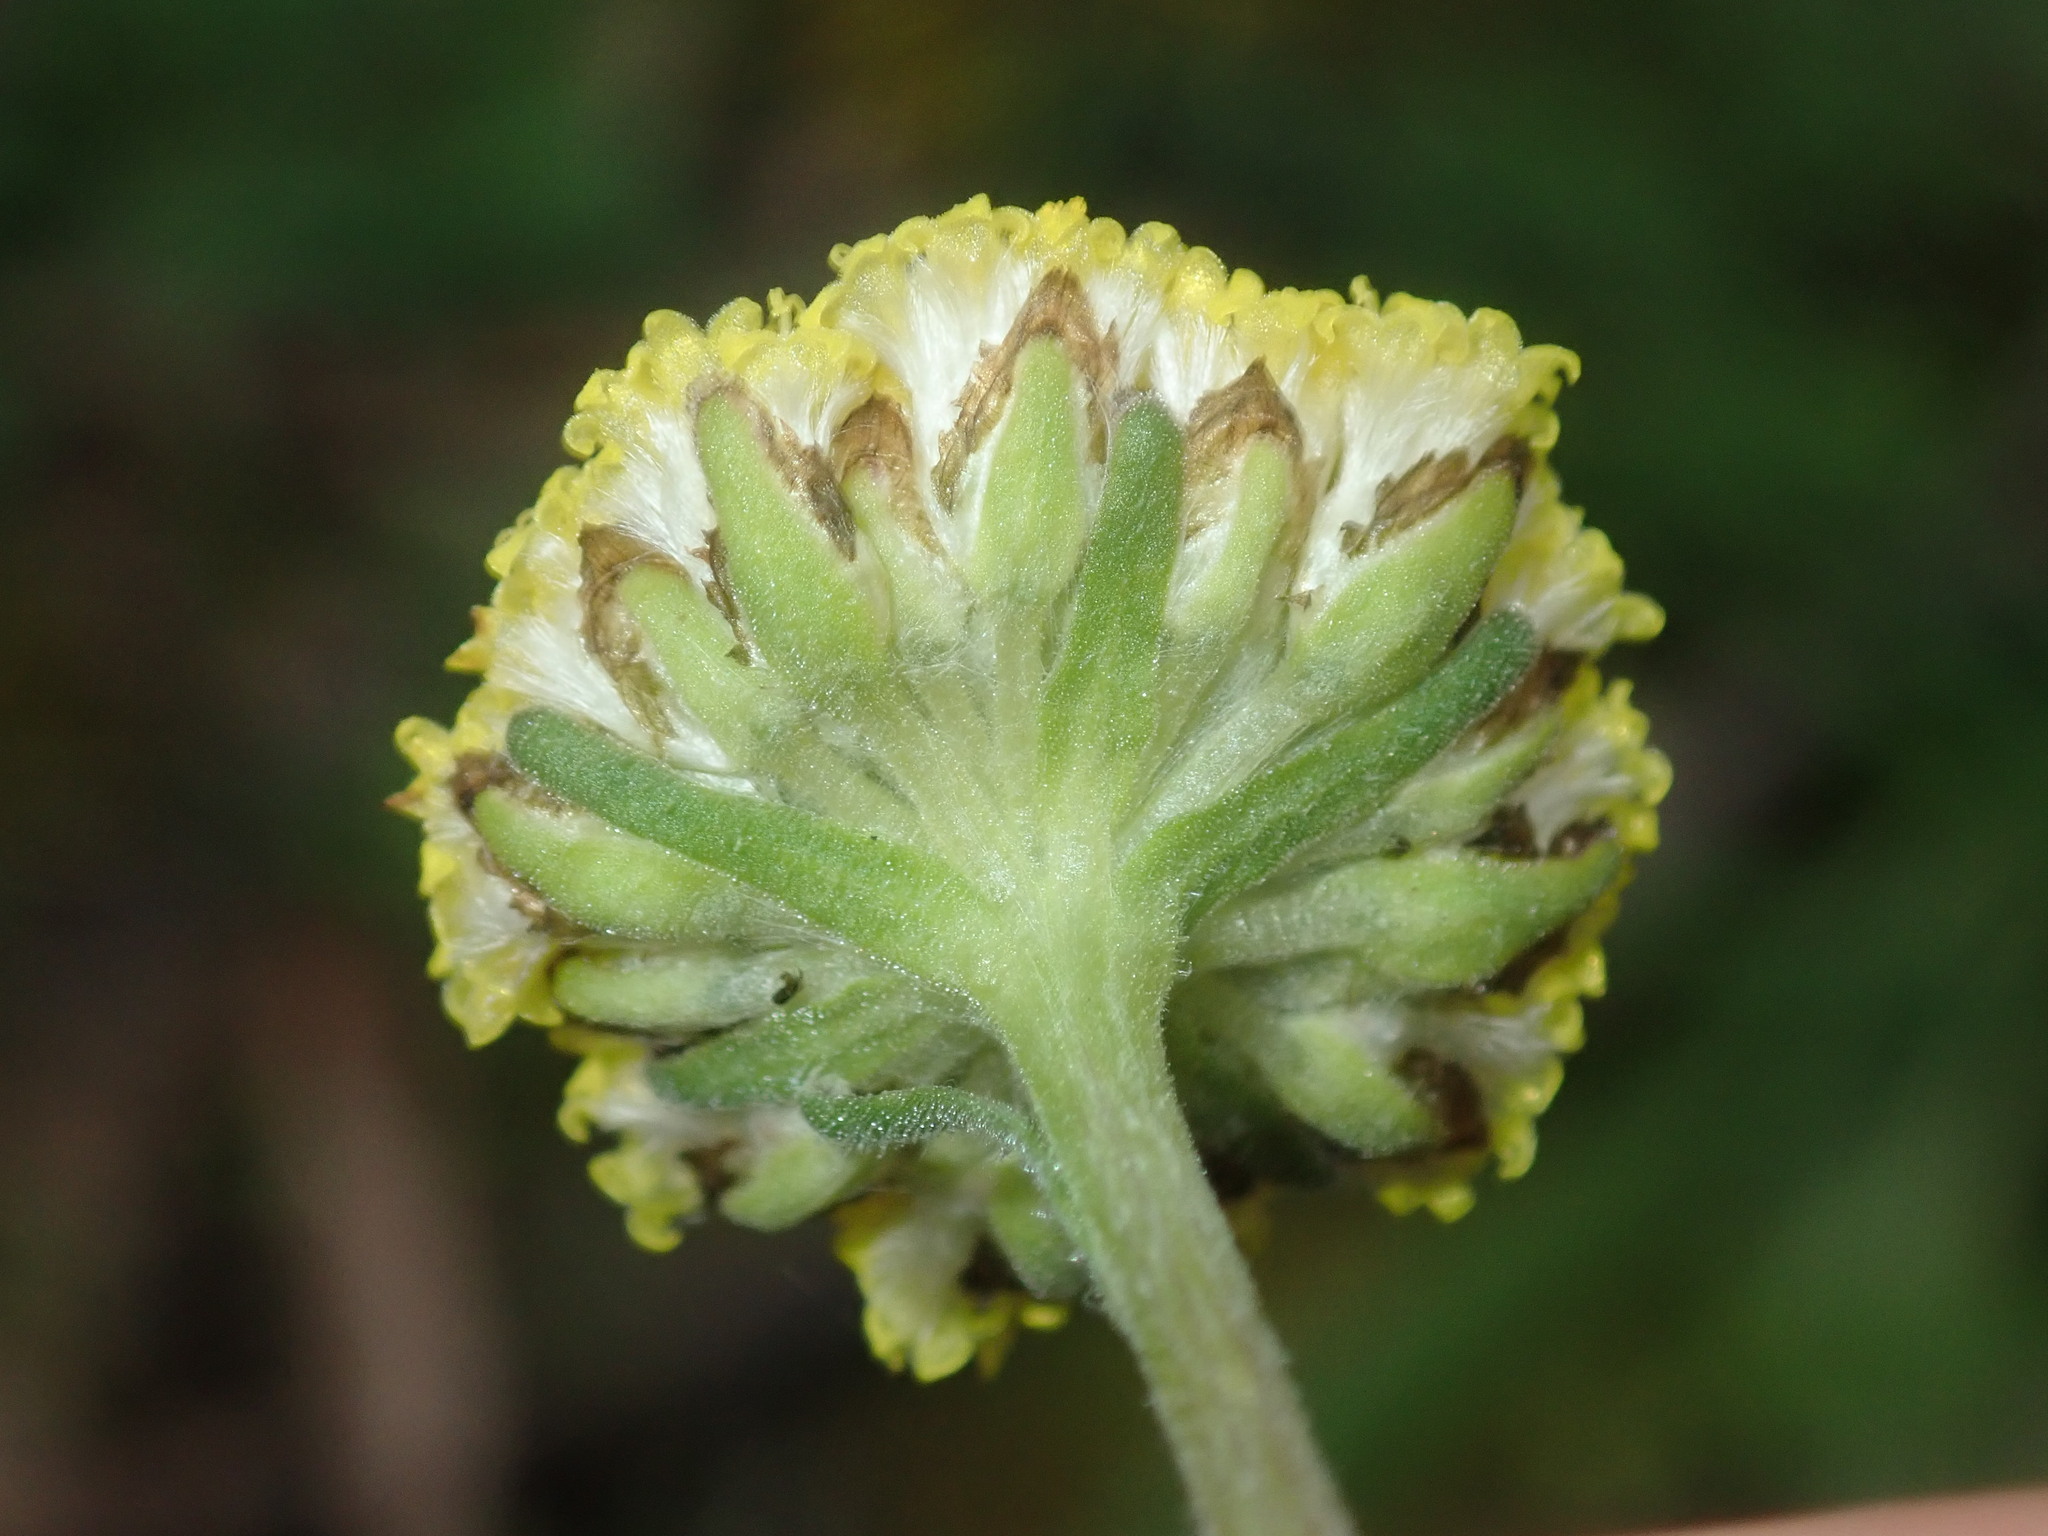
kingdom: Plantae
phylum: Tracheophyta
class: Magnoliopsida
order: Asterales
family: Asteraceae
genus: Craspedia
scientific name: Craspedia variabilis
